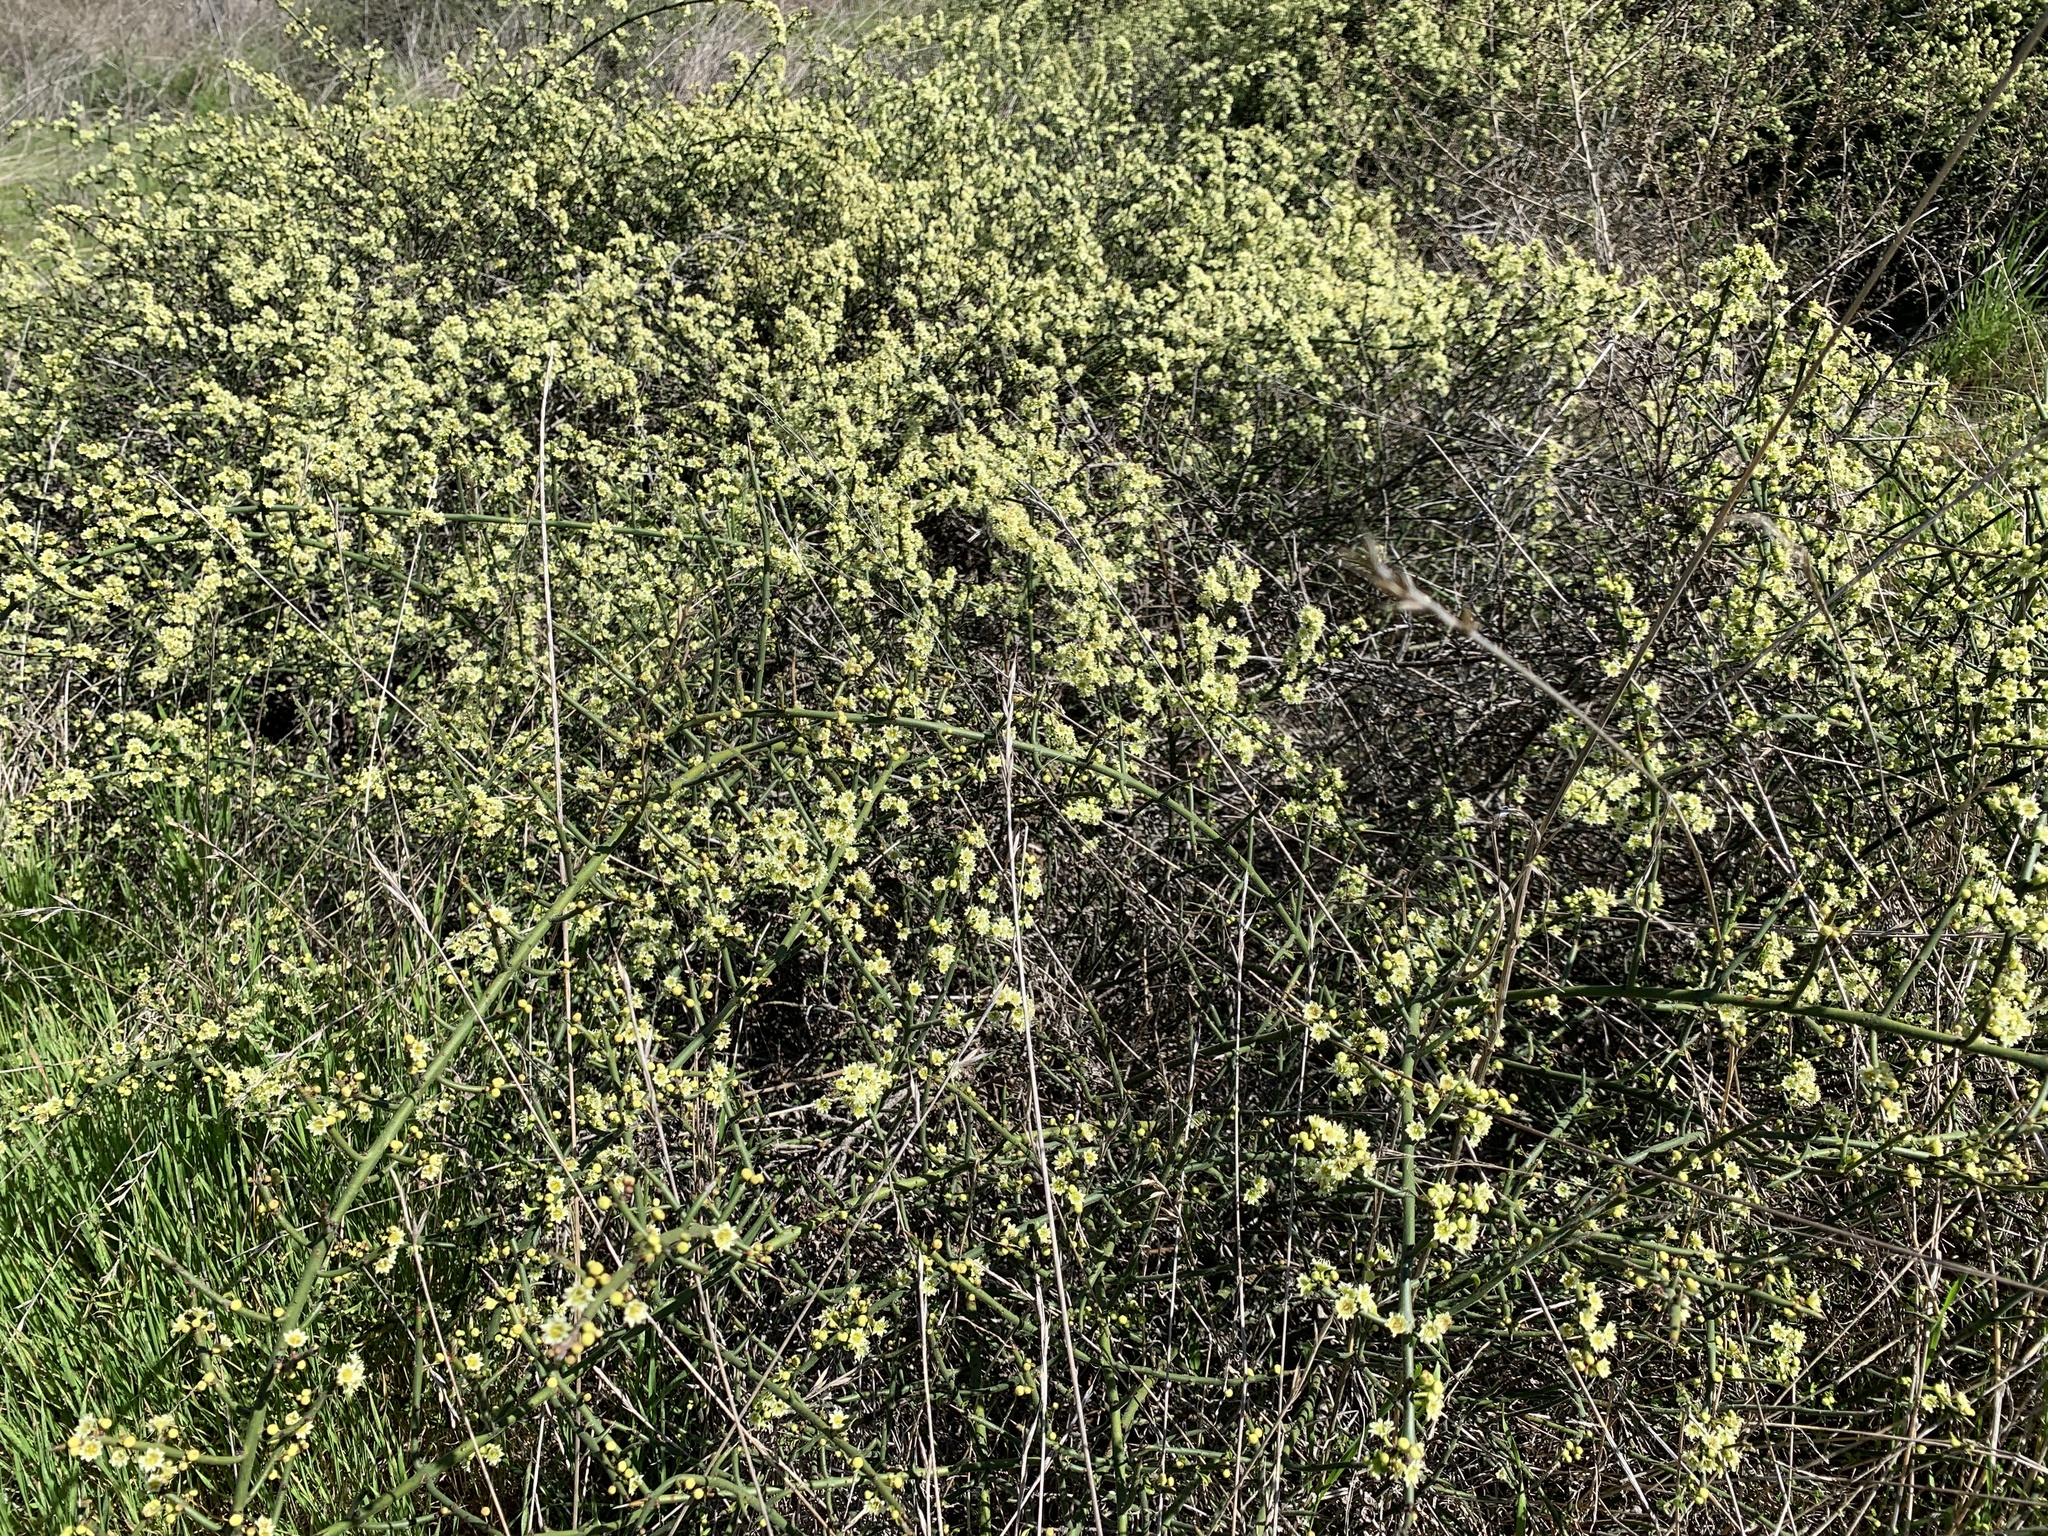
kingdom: Plantae
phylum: Tracheophyta
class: Magnoliopsida
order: Rosales
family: Rhamnaceae
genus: Adolphia
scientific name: Adolphia californica
